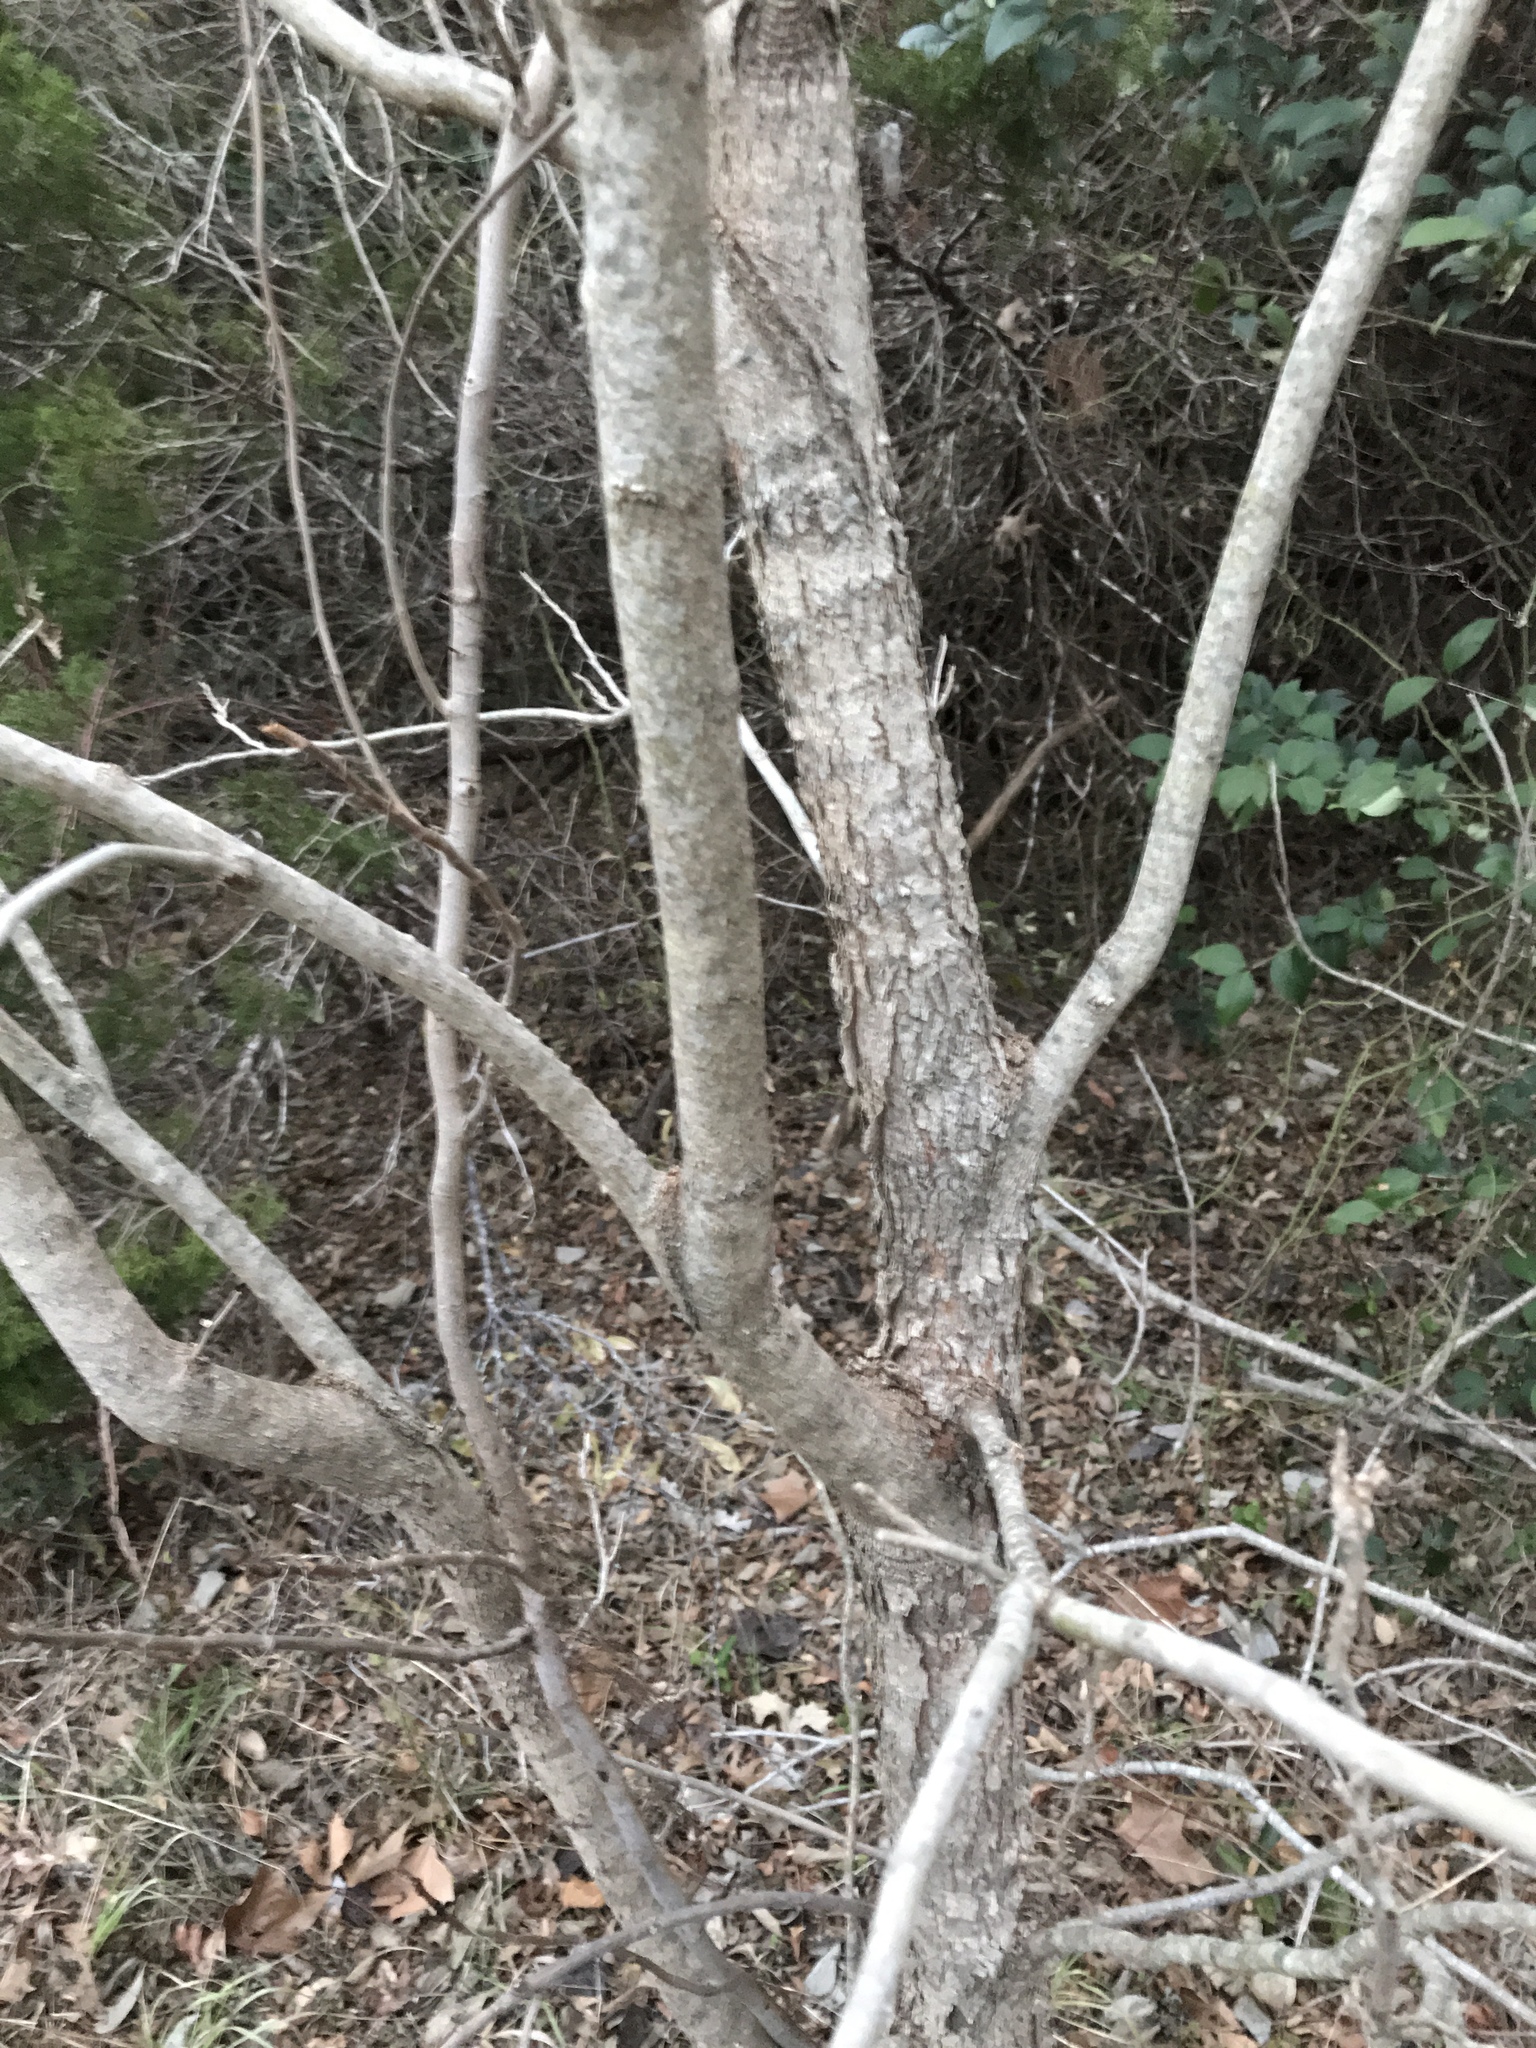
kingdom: Plantae
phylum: Tracheophyta
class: Magnoliopsida
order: Sapindales
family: Sapindaceae
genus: Sapindus
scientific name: Sapindus drummondii
